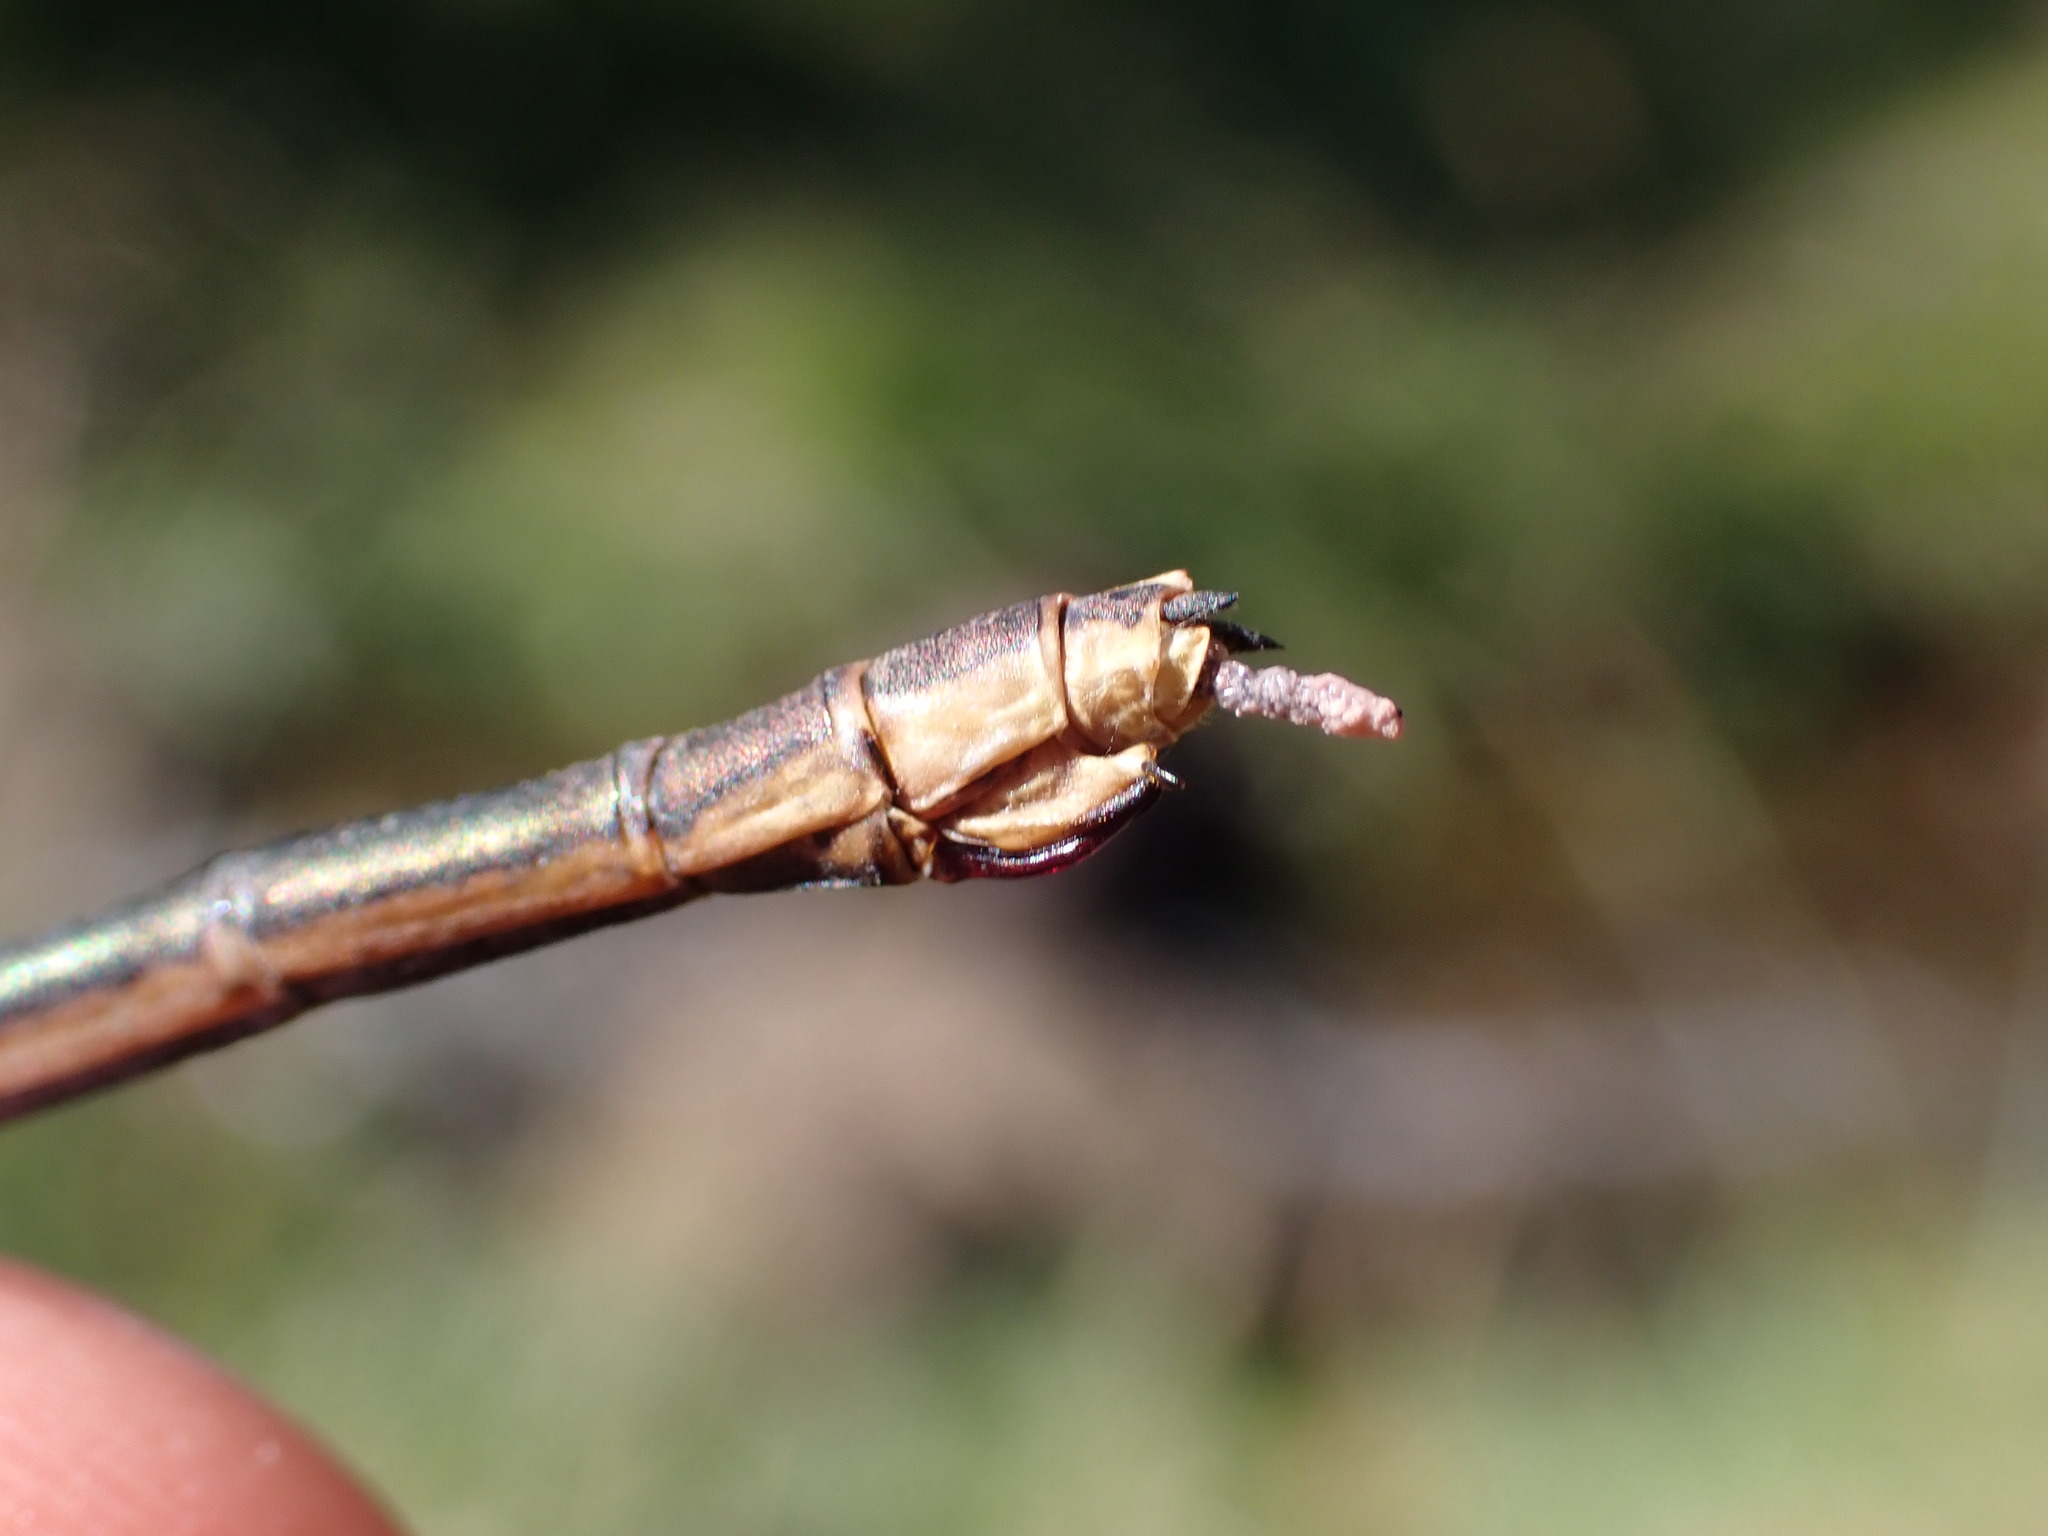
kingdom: Animalia
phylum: Arthropoda
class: Insecta
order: Odonata
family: Calopterygidae
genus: Calopteryx
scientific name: Calopteryx virgo
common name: Beautiful demoiselle
